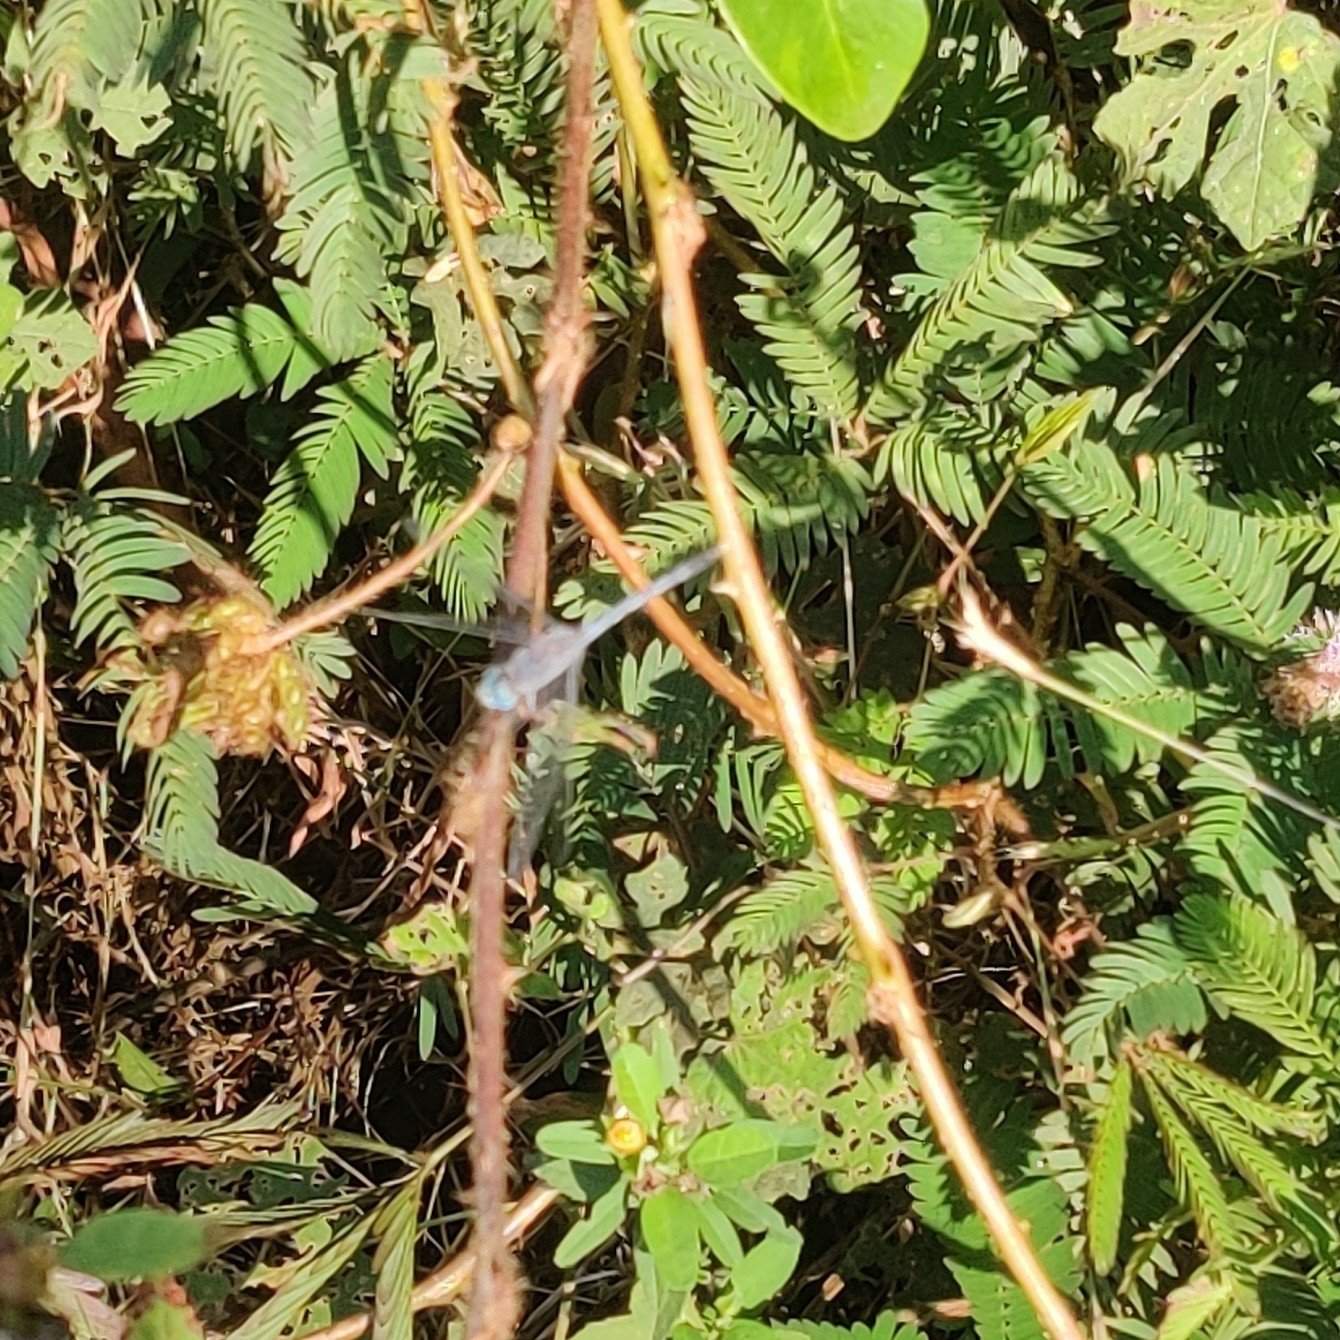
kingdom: Animalia
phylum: Arthropoda
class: Insecta
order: Odonata
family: Libellulidae
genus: Diplacodes
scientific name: Diplacodes trivialis
